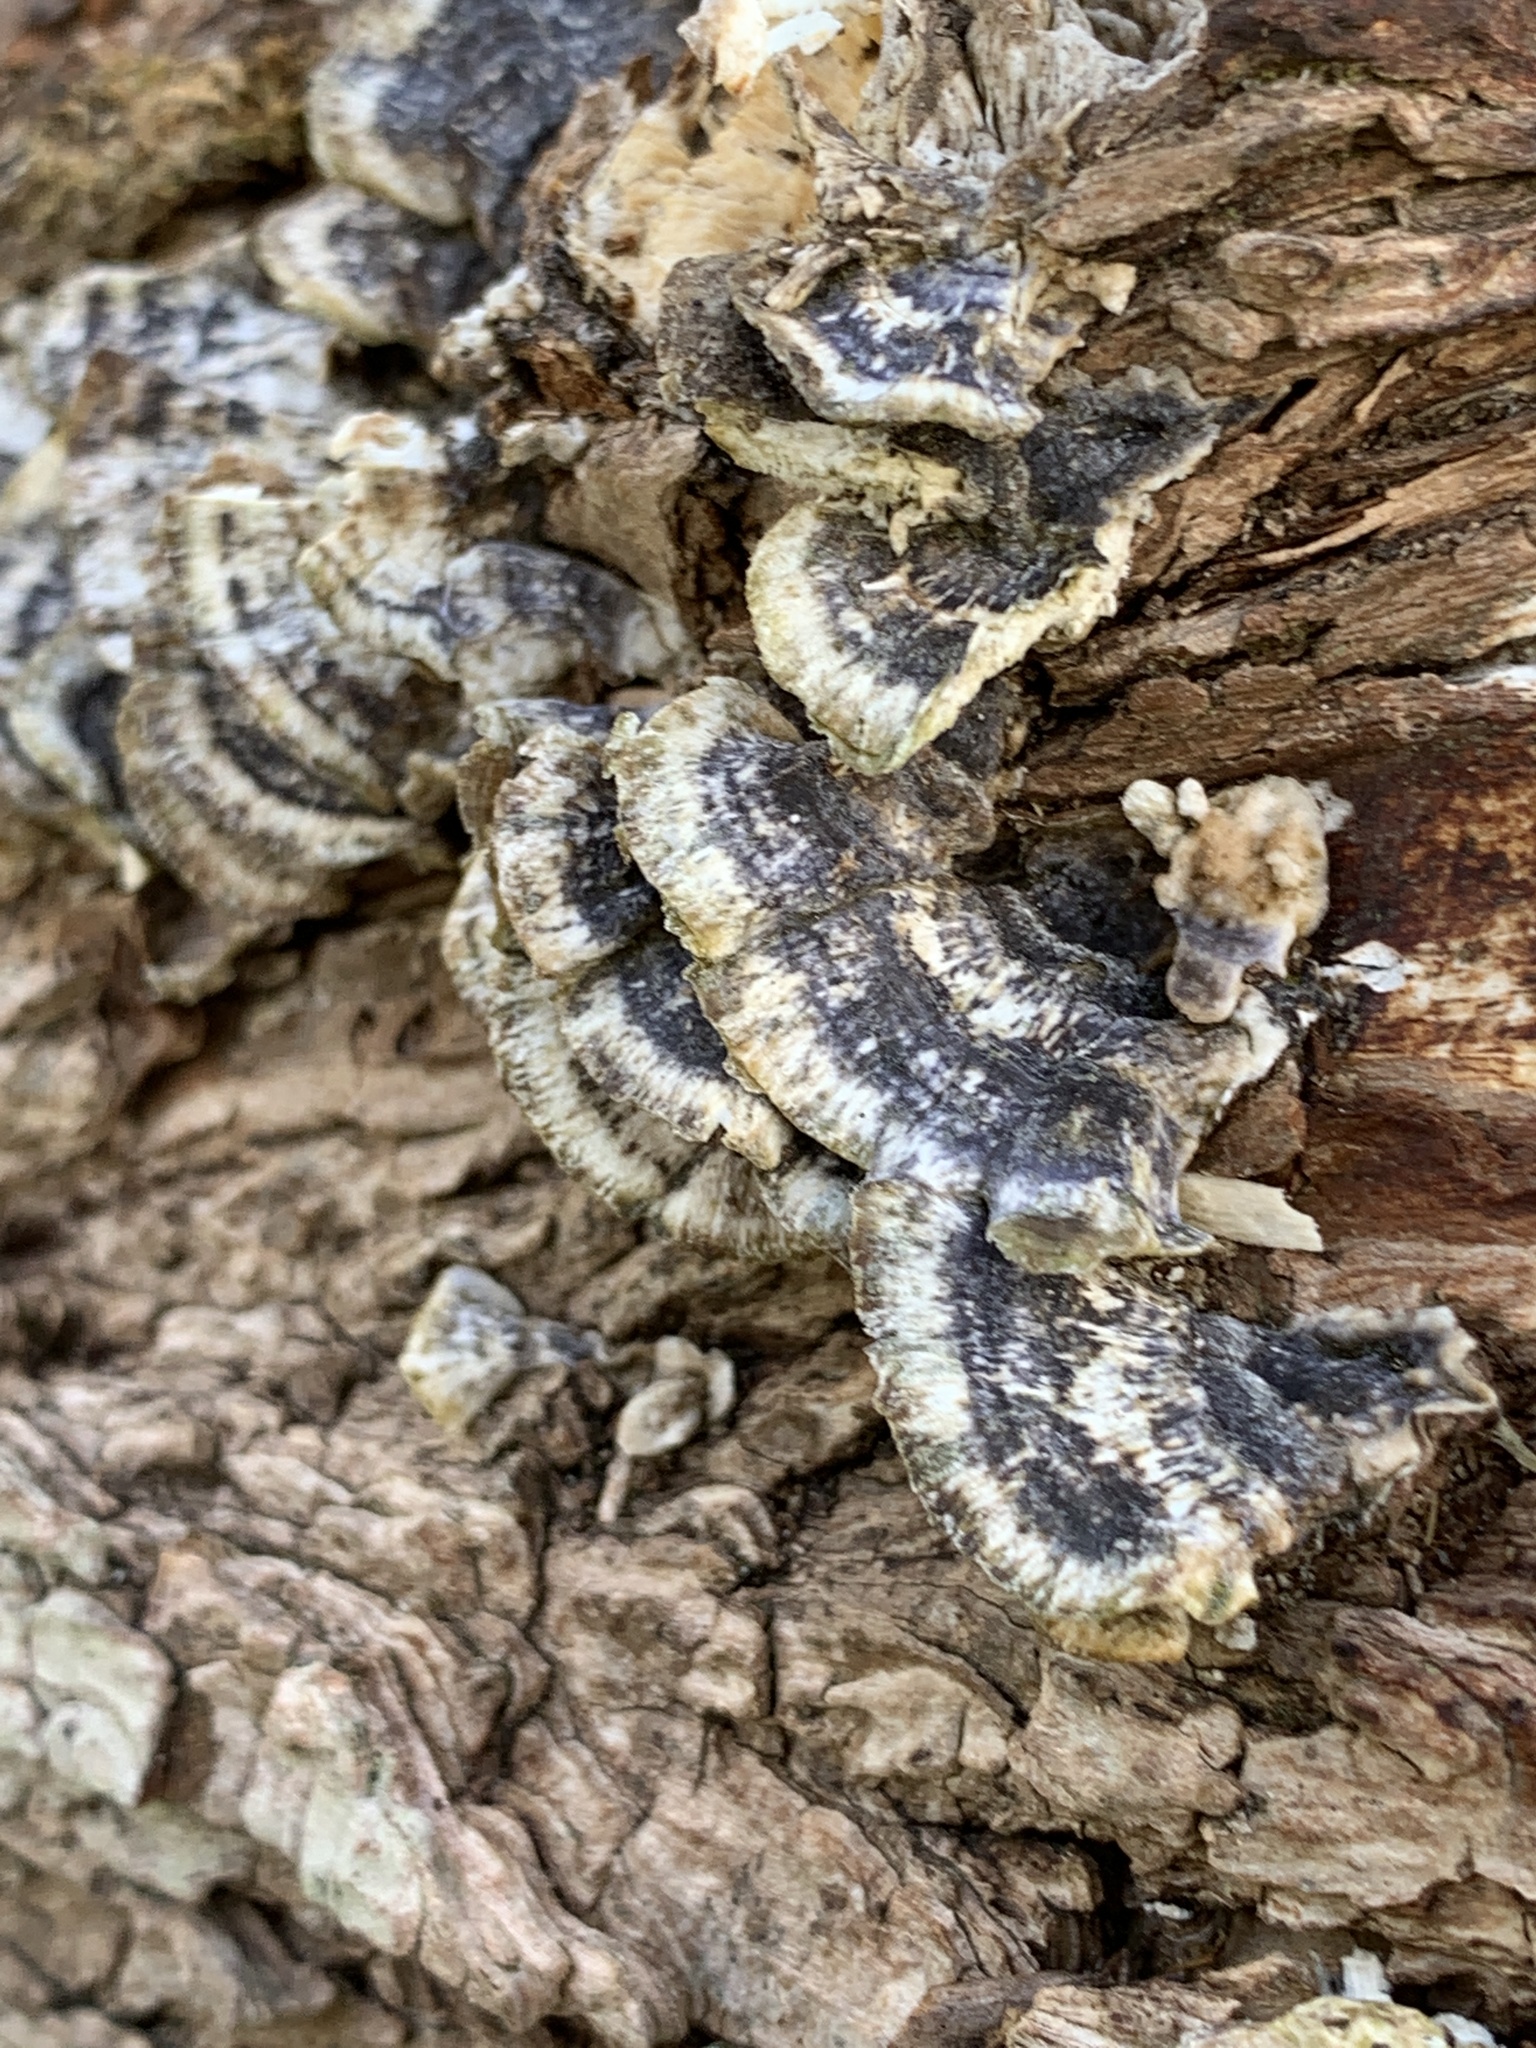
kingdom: Fungi
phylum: Basidiomycota
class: Agaricomycetes
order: Polyporales
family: Polyporaceae
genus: Trametes
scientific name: Trametes versicolor
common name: Turkeytail
